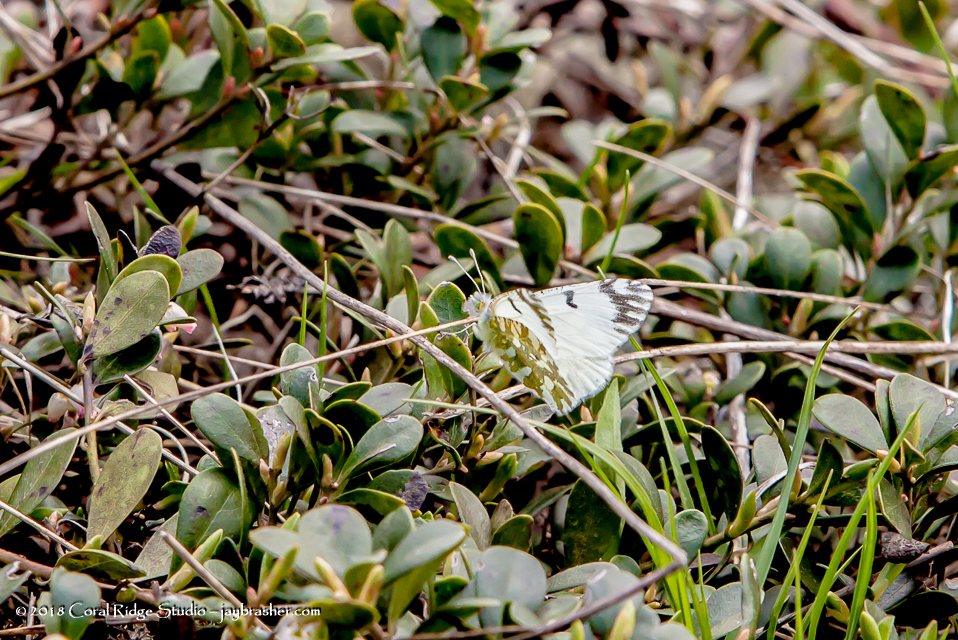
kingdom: Animalia
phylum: Arthropoda
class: Insecta
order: Lepidoptera
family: Pieridae
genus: Euchloe
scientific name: Euchloe ausonides
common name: Creamy marblewing
